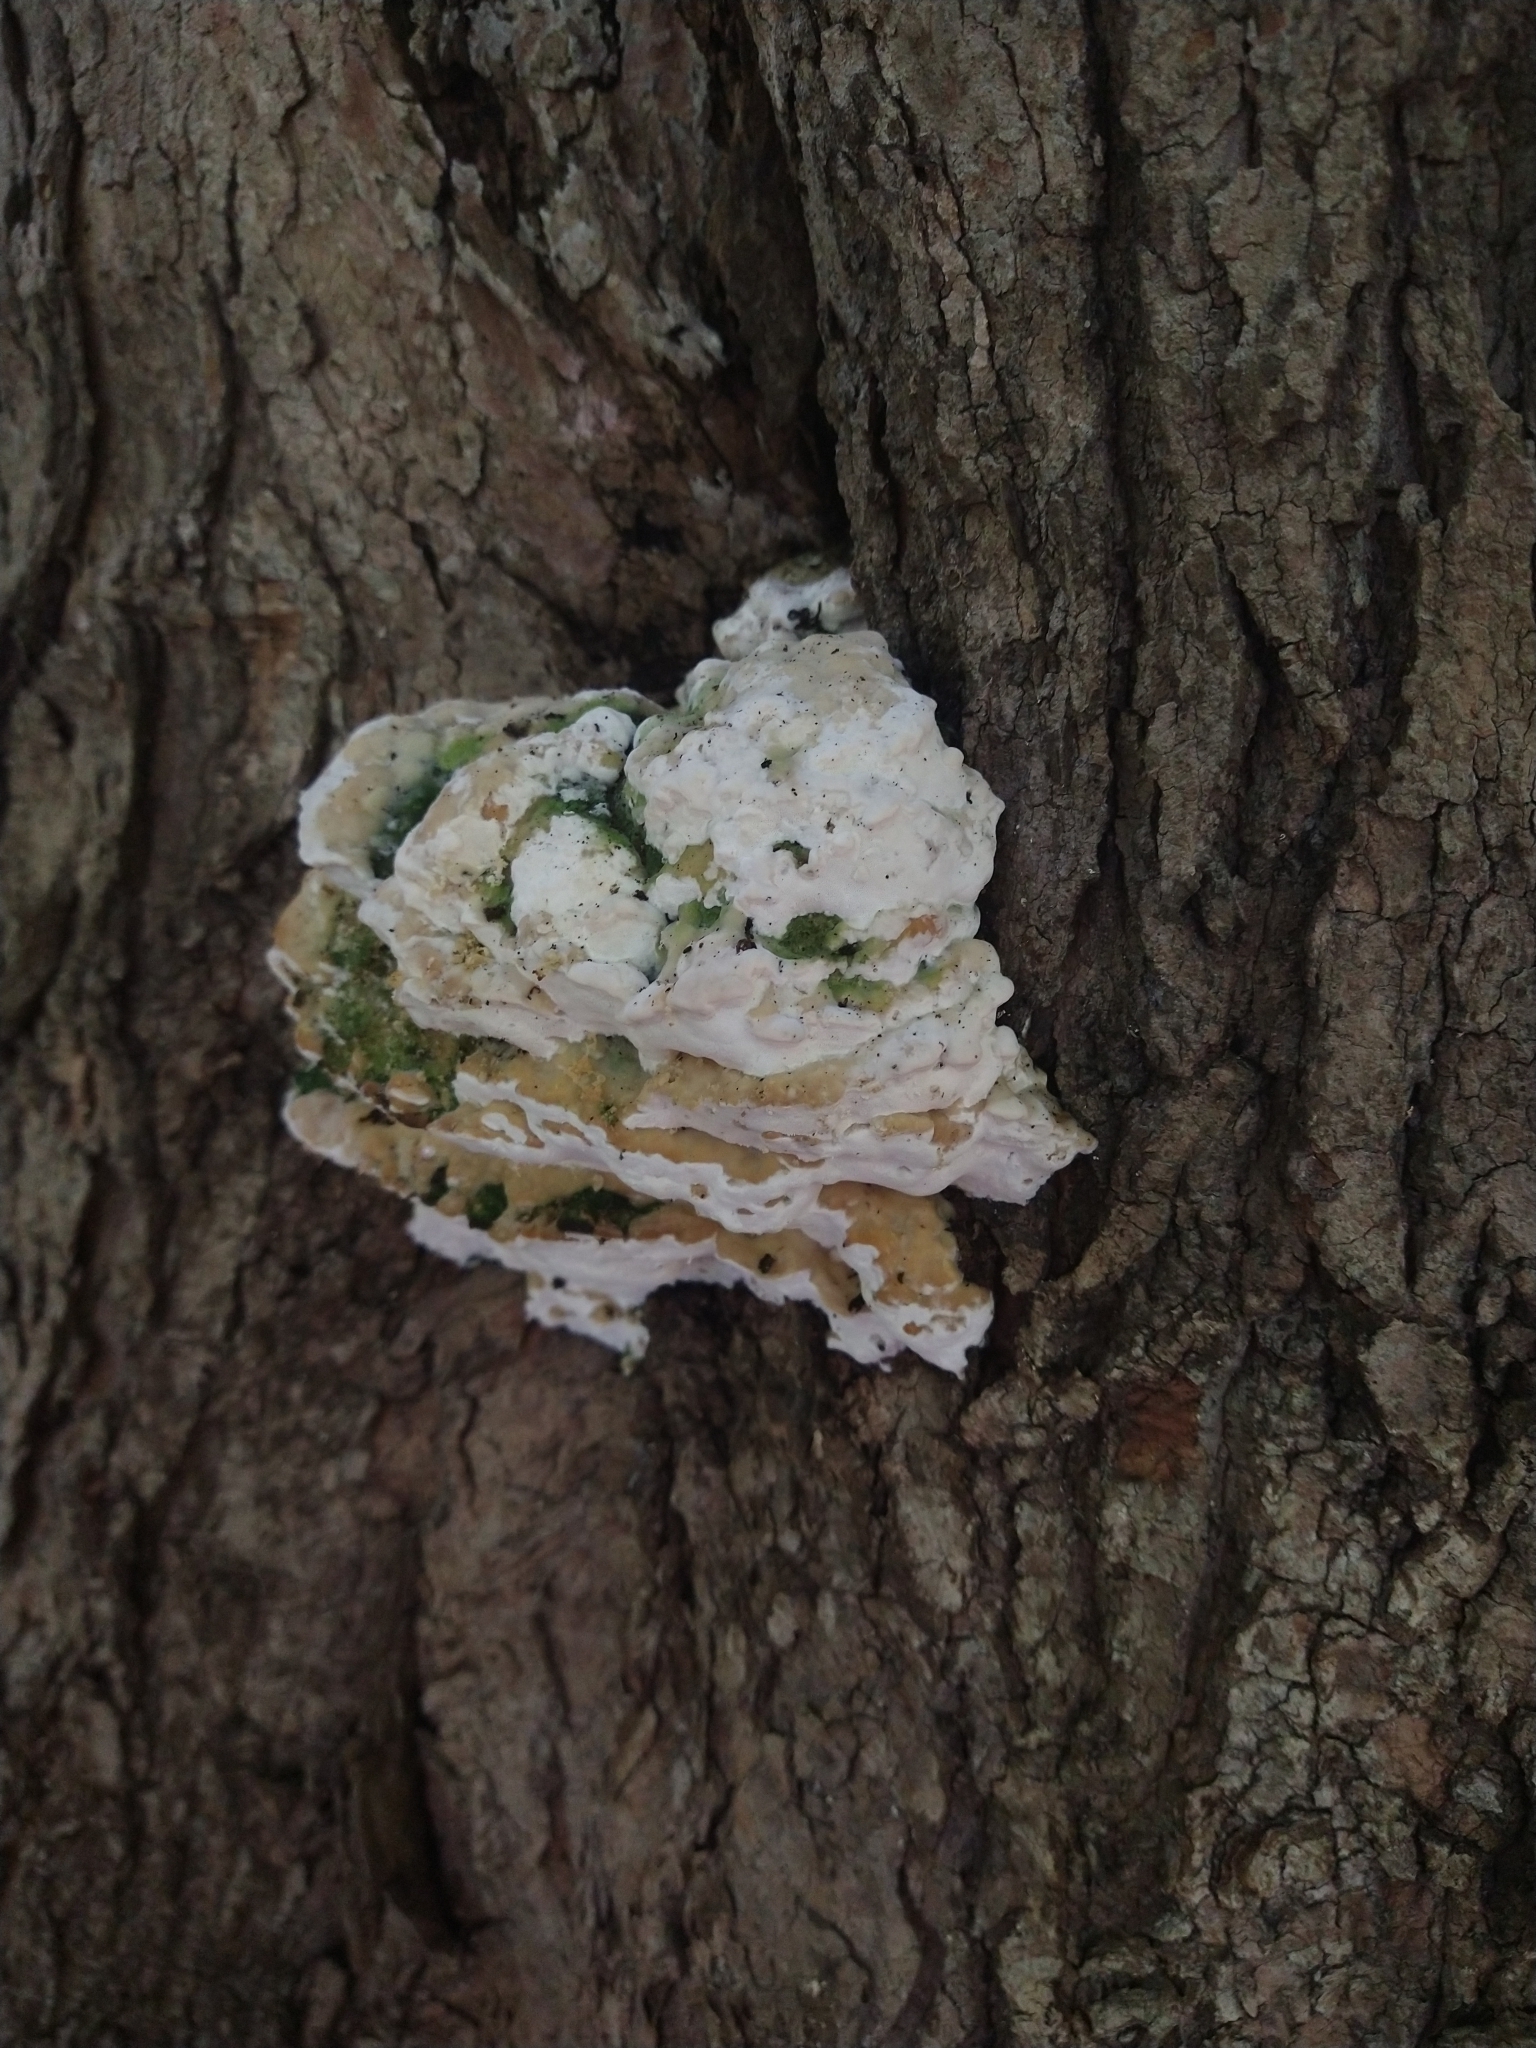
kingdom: Fungi
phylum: Basidiomycota
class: Agaricomycetes
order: Hymenochaetales
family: Oxyporaceae
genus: Oxyporus
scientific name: Oxyporus populinus
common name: Poplar bracket
